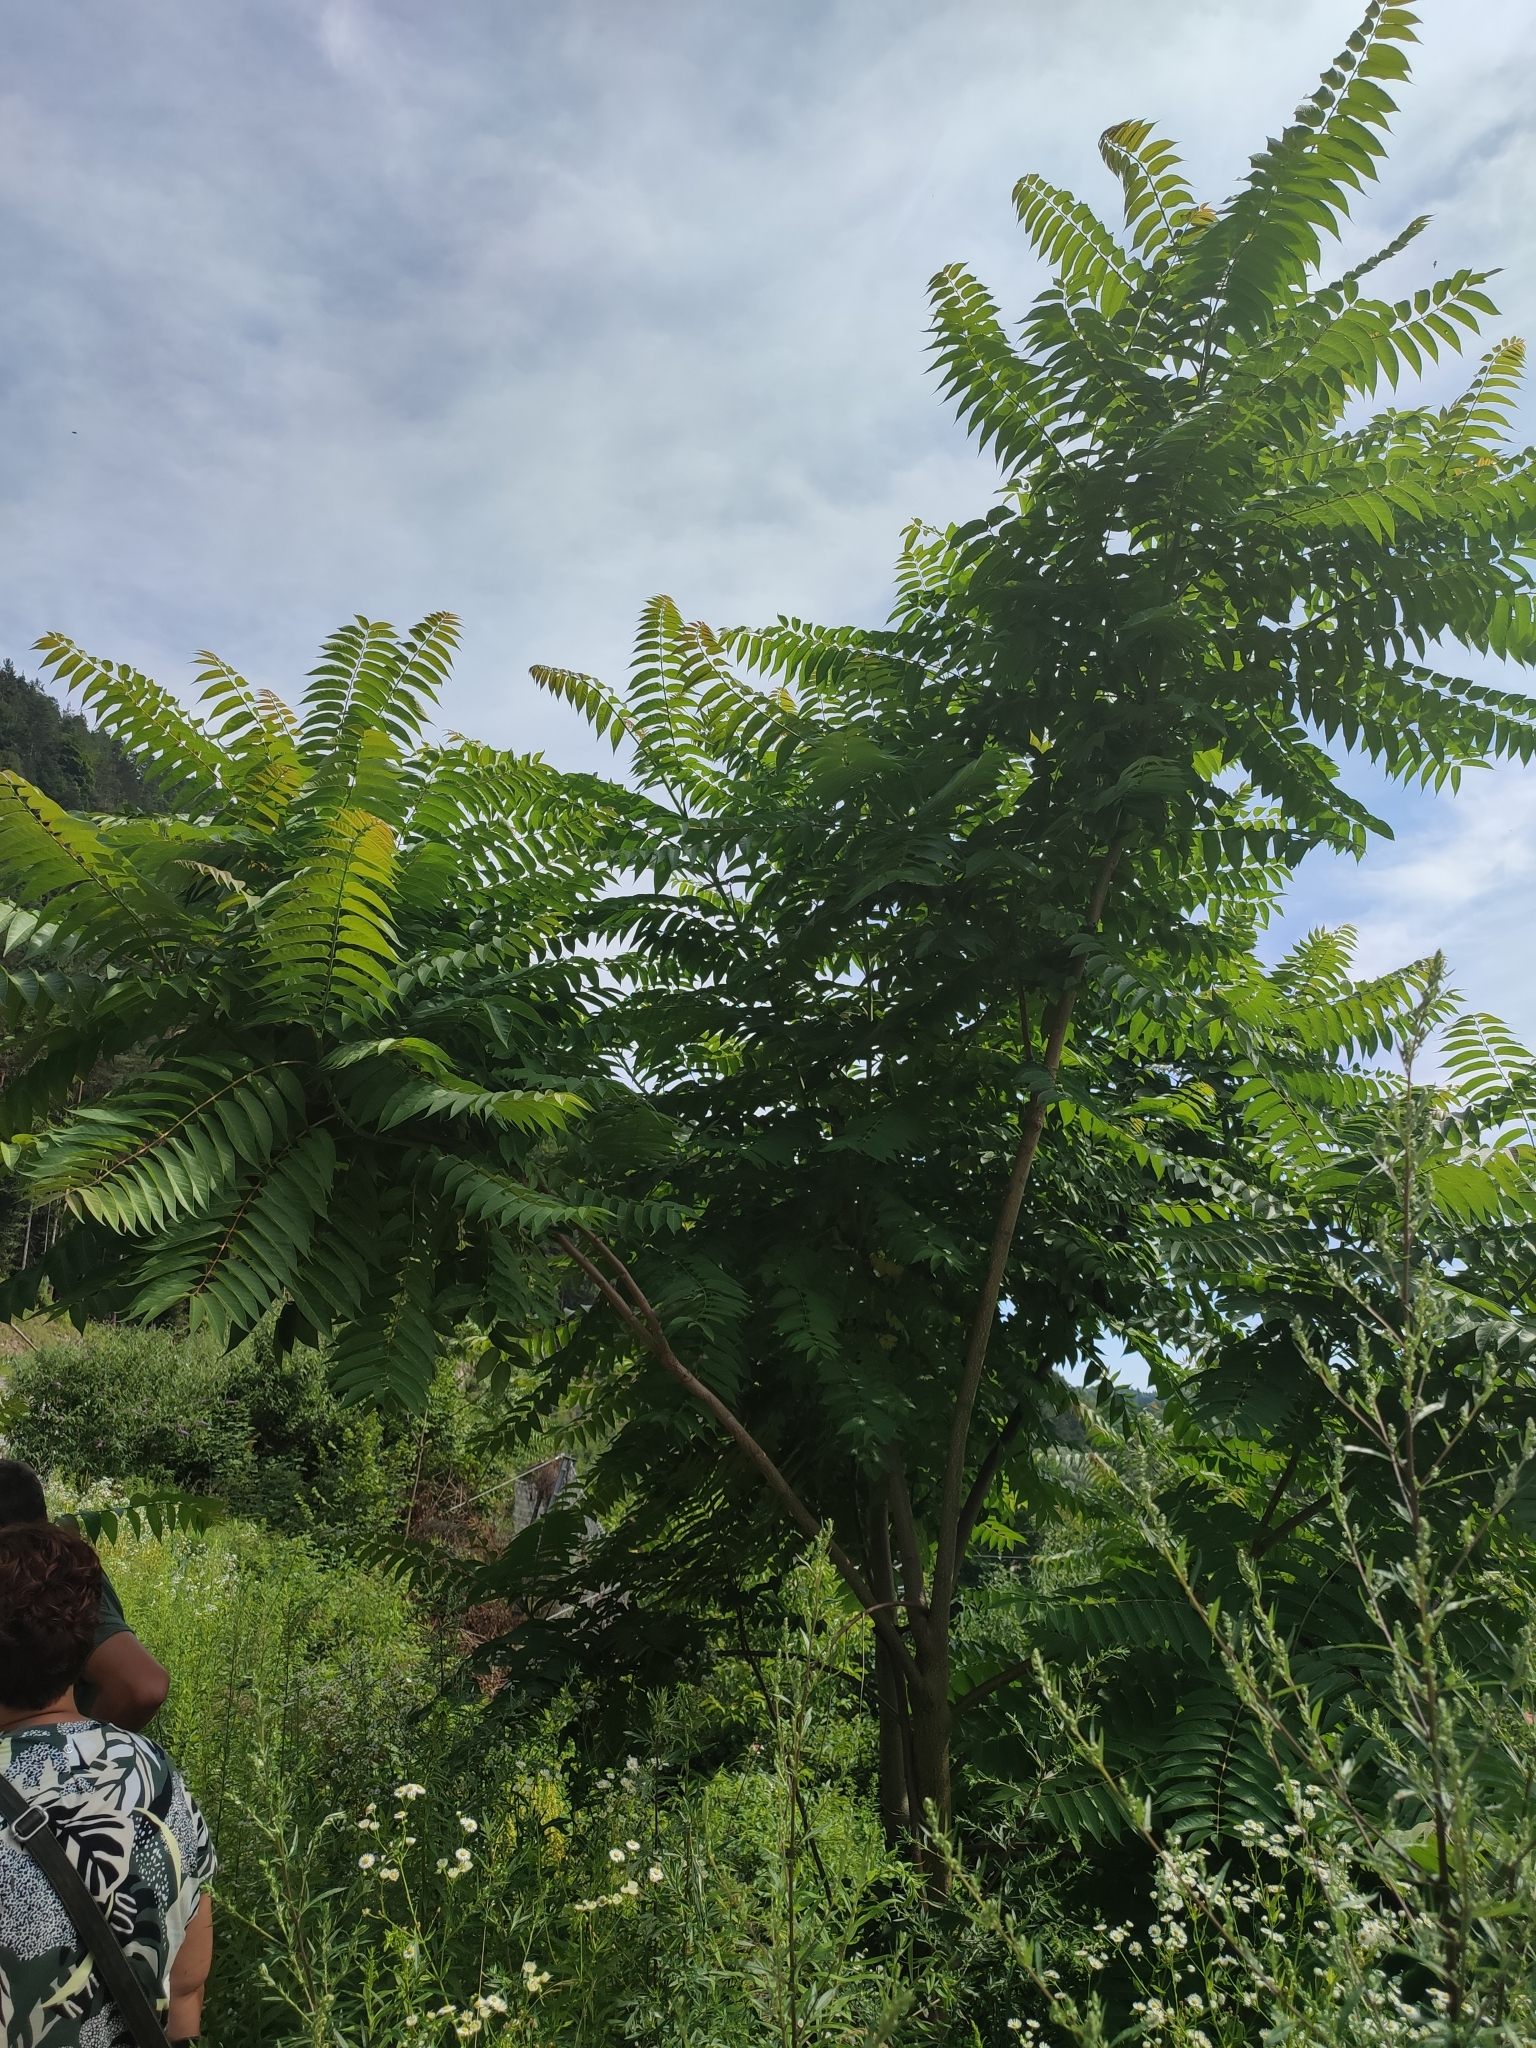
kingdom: Plantae
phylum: Tracheophyta
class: Magnoliopsida
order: Sapindales
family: Simaroubaceae
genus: Ailanthus
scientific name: Ailanthus altissima
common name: Tree-of-heaven
